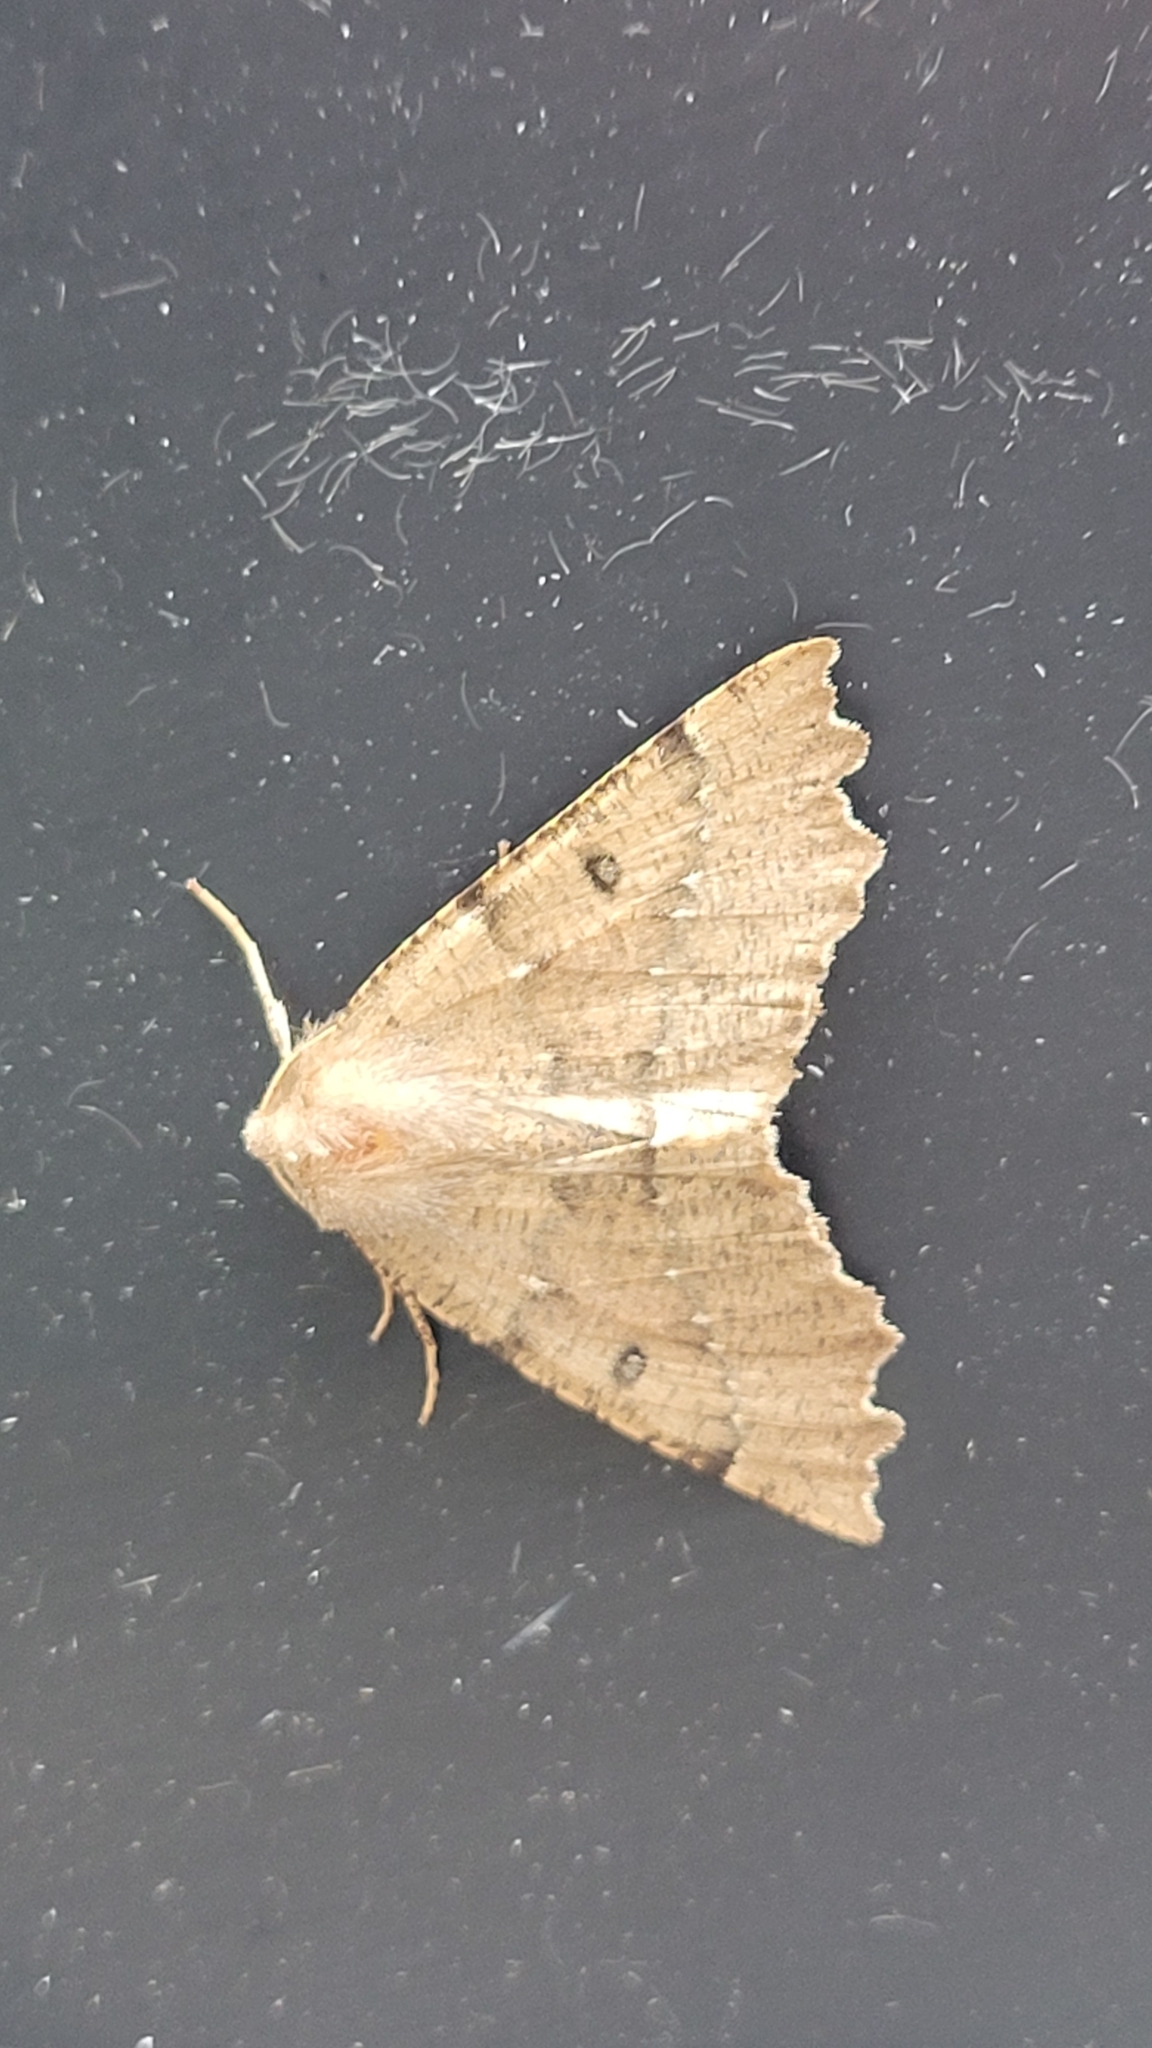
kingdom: Animalia
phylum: Arthropoda
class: Insecta
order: Lepidoptera
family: Geometridae
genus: Odontopera
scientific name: Odontopera bidentata
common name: Scalloped hazel
